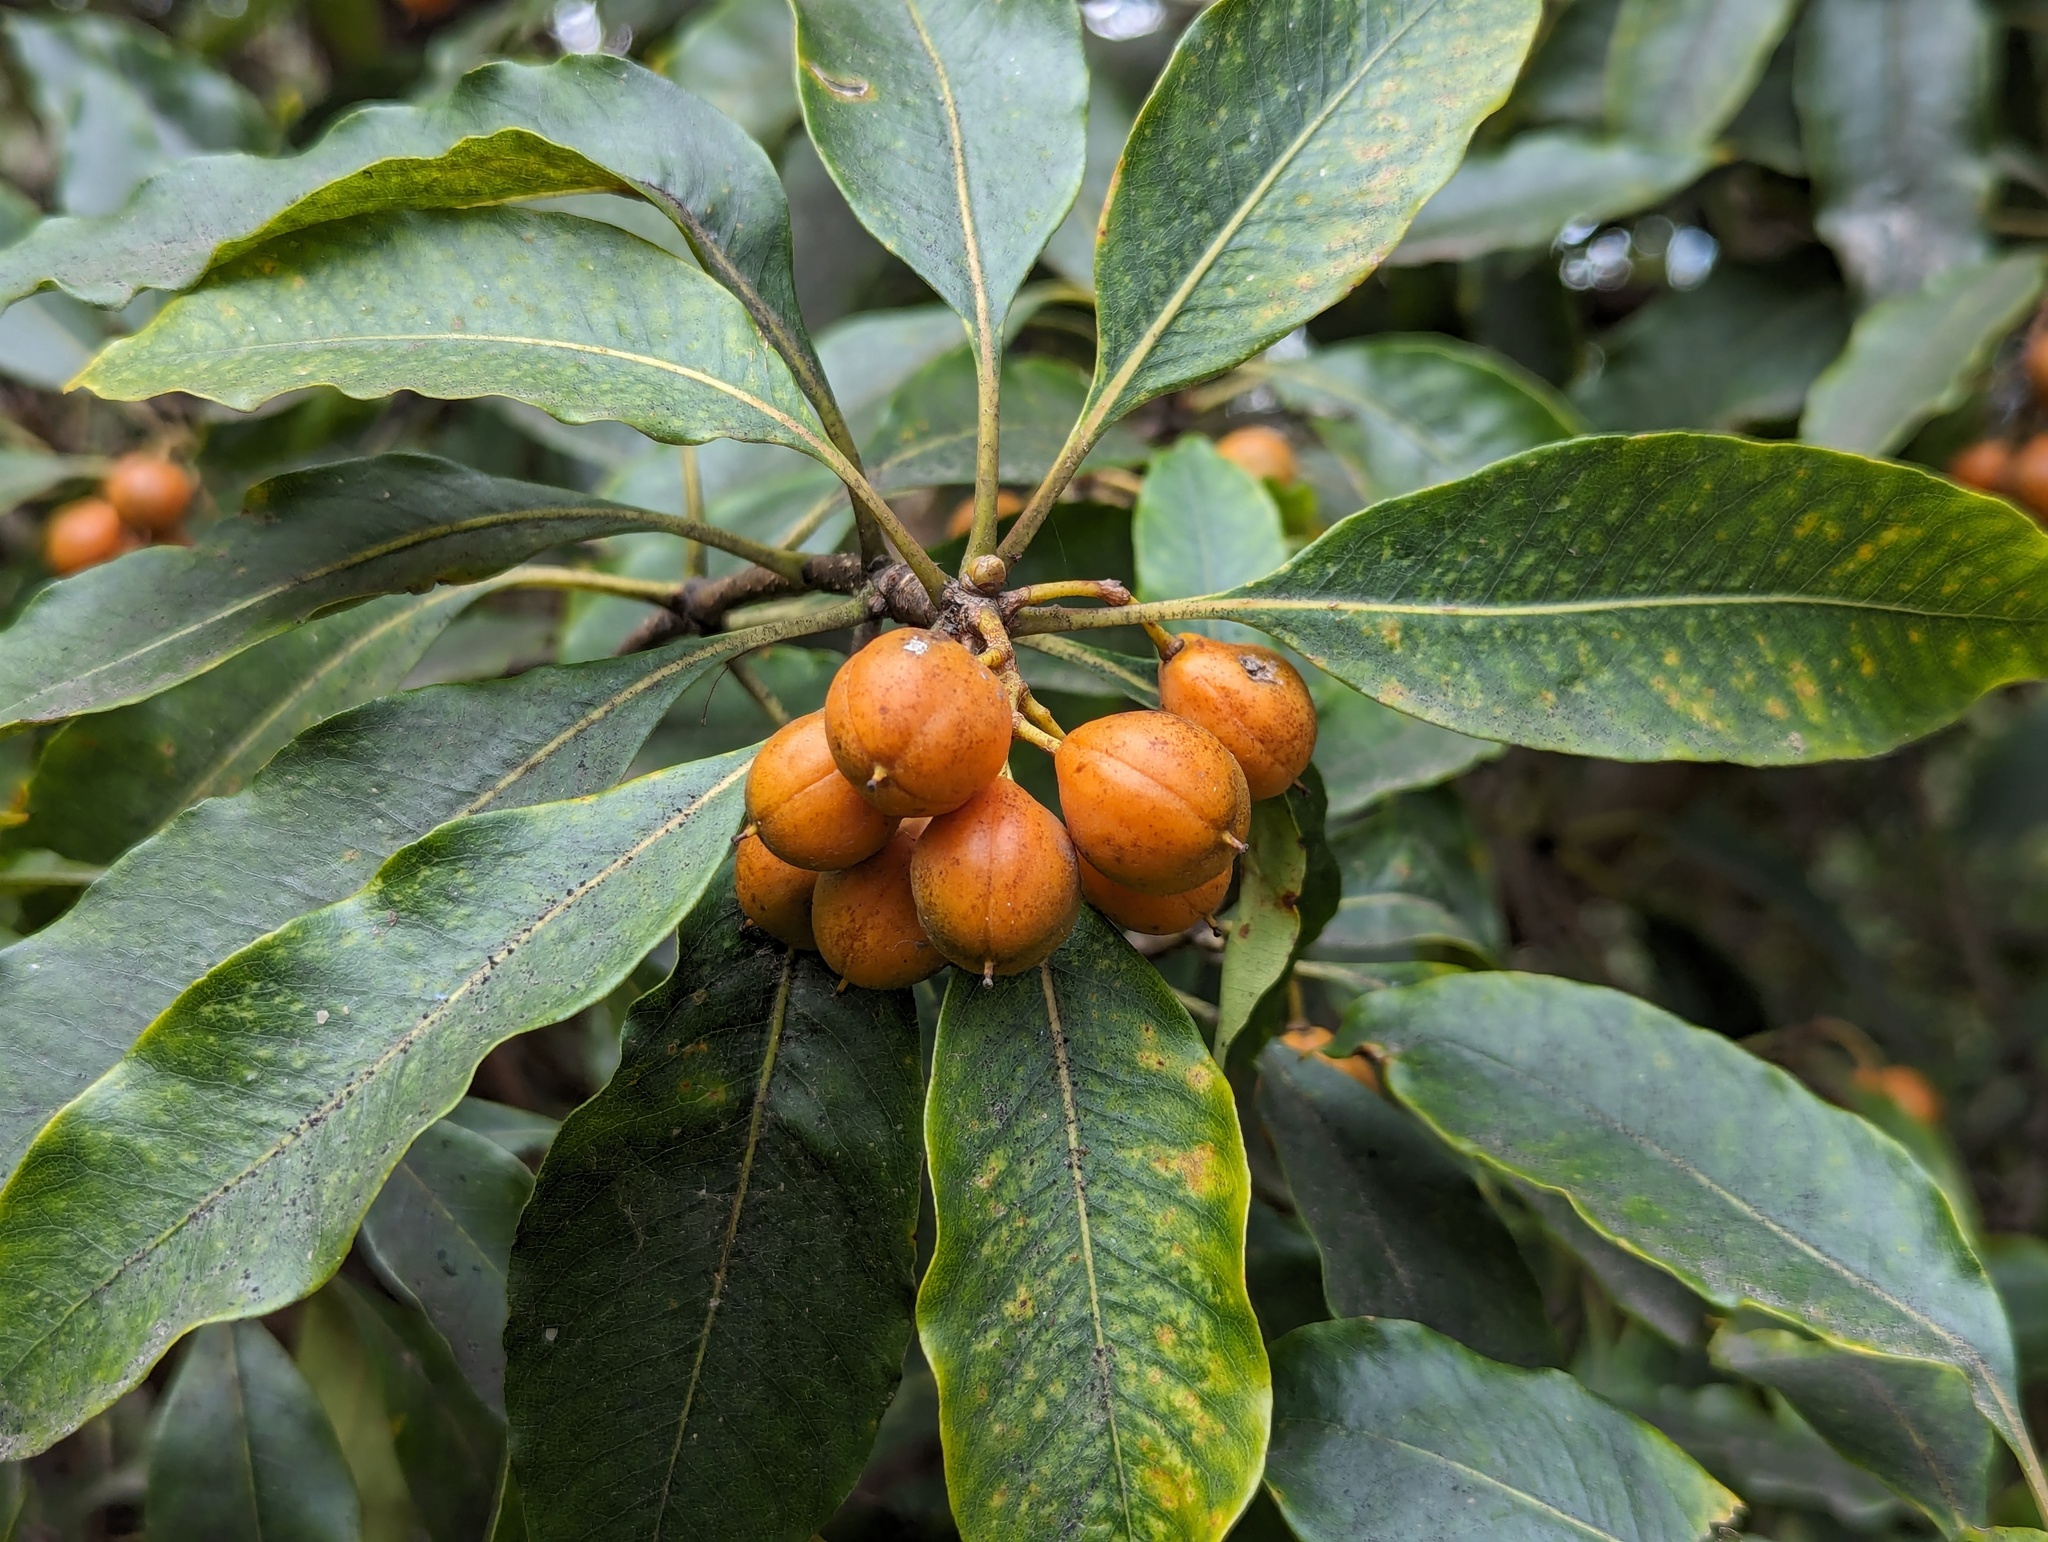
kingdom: Plantae
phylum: Tracheophyta
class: Magnoliopsida
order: Apiales
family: Pittosporaceae
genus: Pittosporum
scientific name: Pittosporum undulatum
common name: Australian cheesewood
